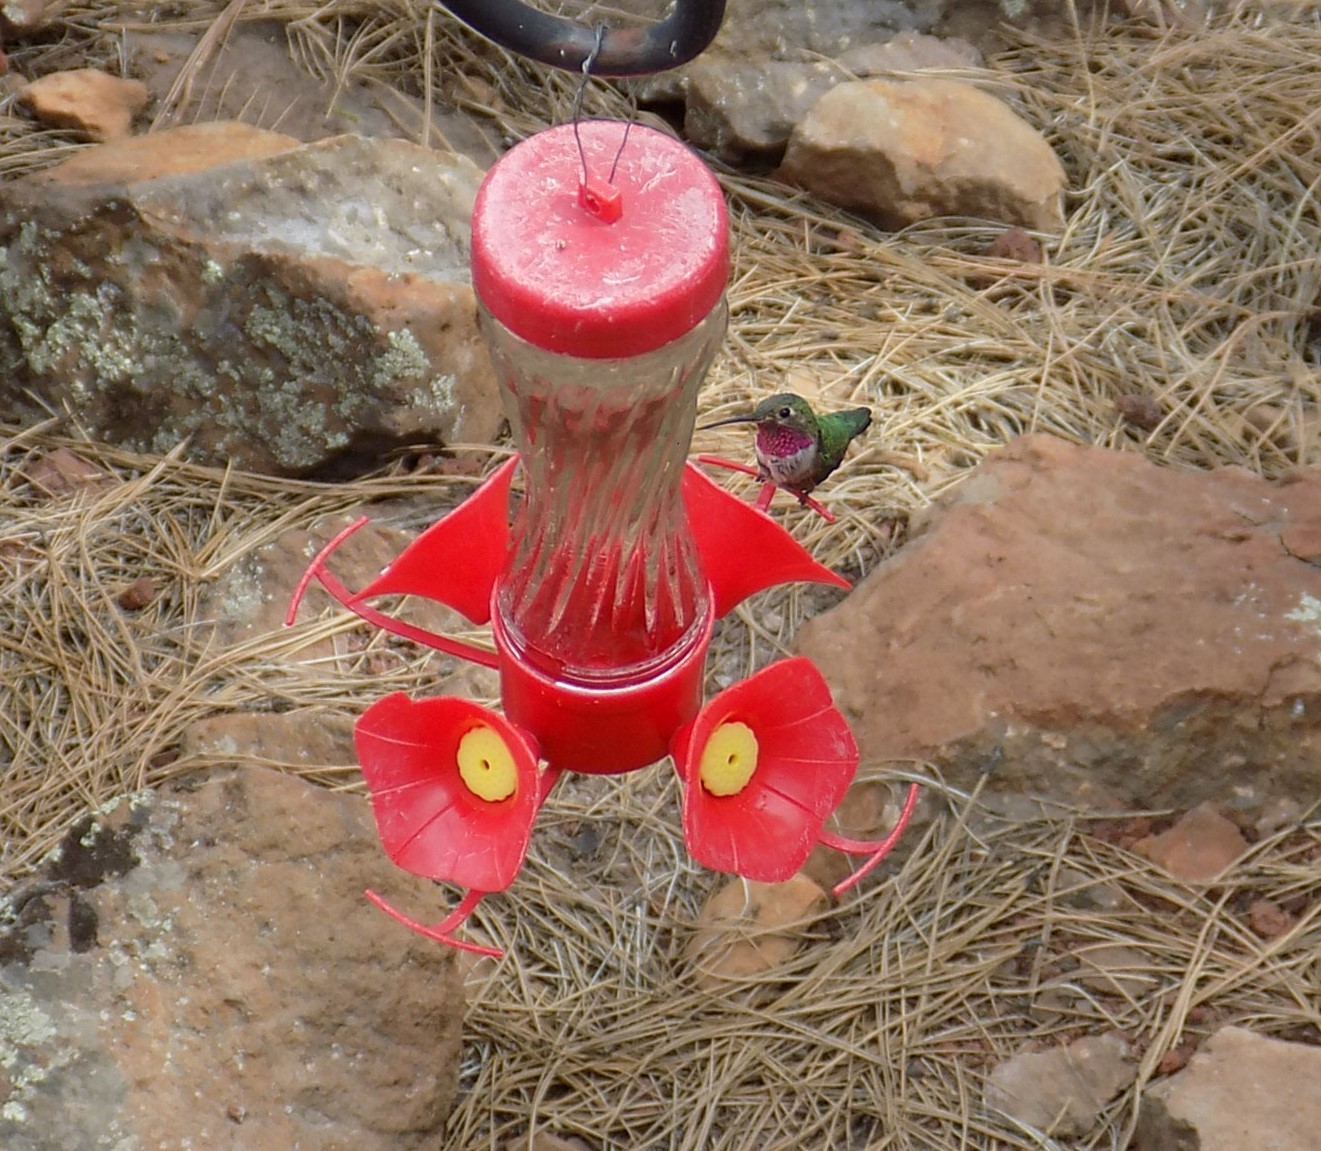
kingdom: Animalia
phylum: Chordata
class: Aves
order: Apodiformes
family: Trochilidae
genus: Selasphorus
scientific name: Selasphorus platycercus
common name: Broad-tailed hummingbird
